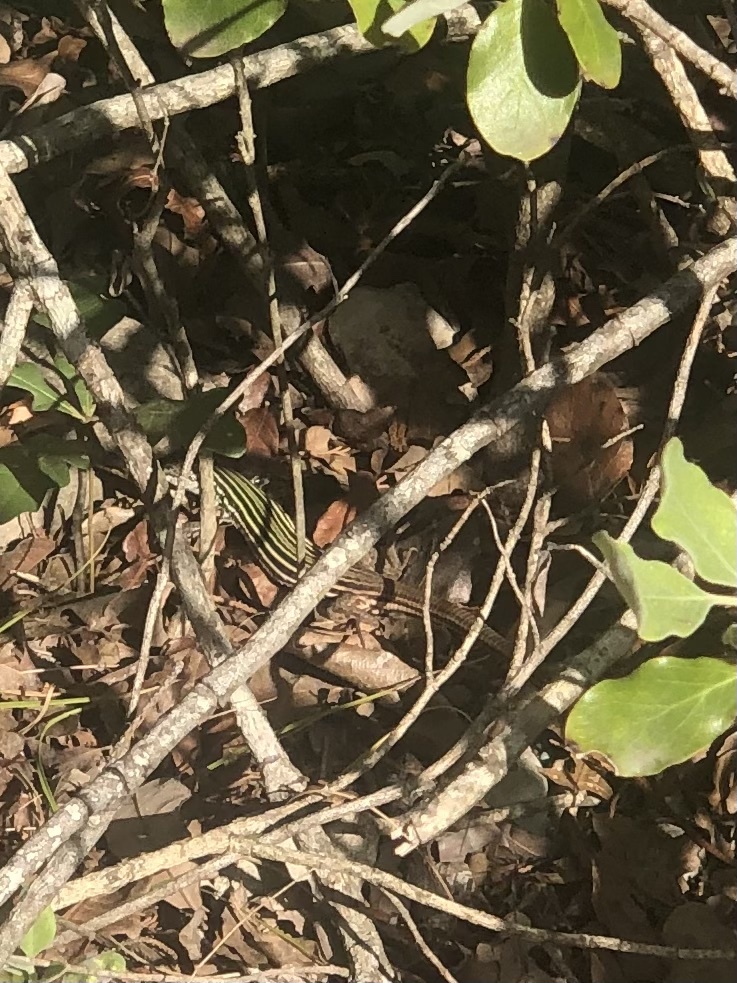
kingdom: Animalia
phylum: Chordata
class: Squamata
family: Teiidae
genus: Aspidoscelis
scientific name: Aspidoscelis gularis
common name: Eastern spotted whiptail
